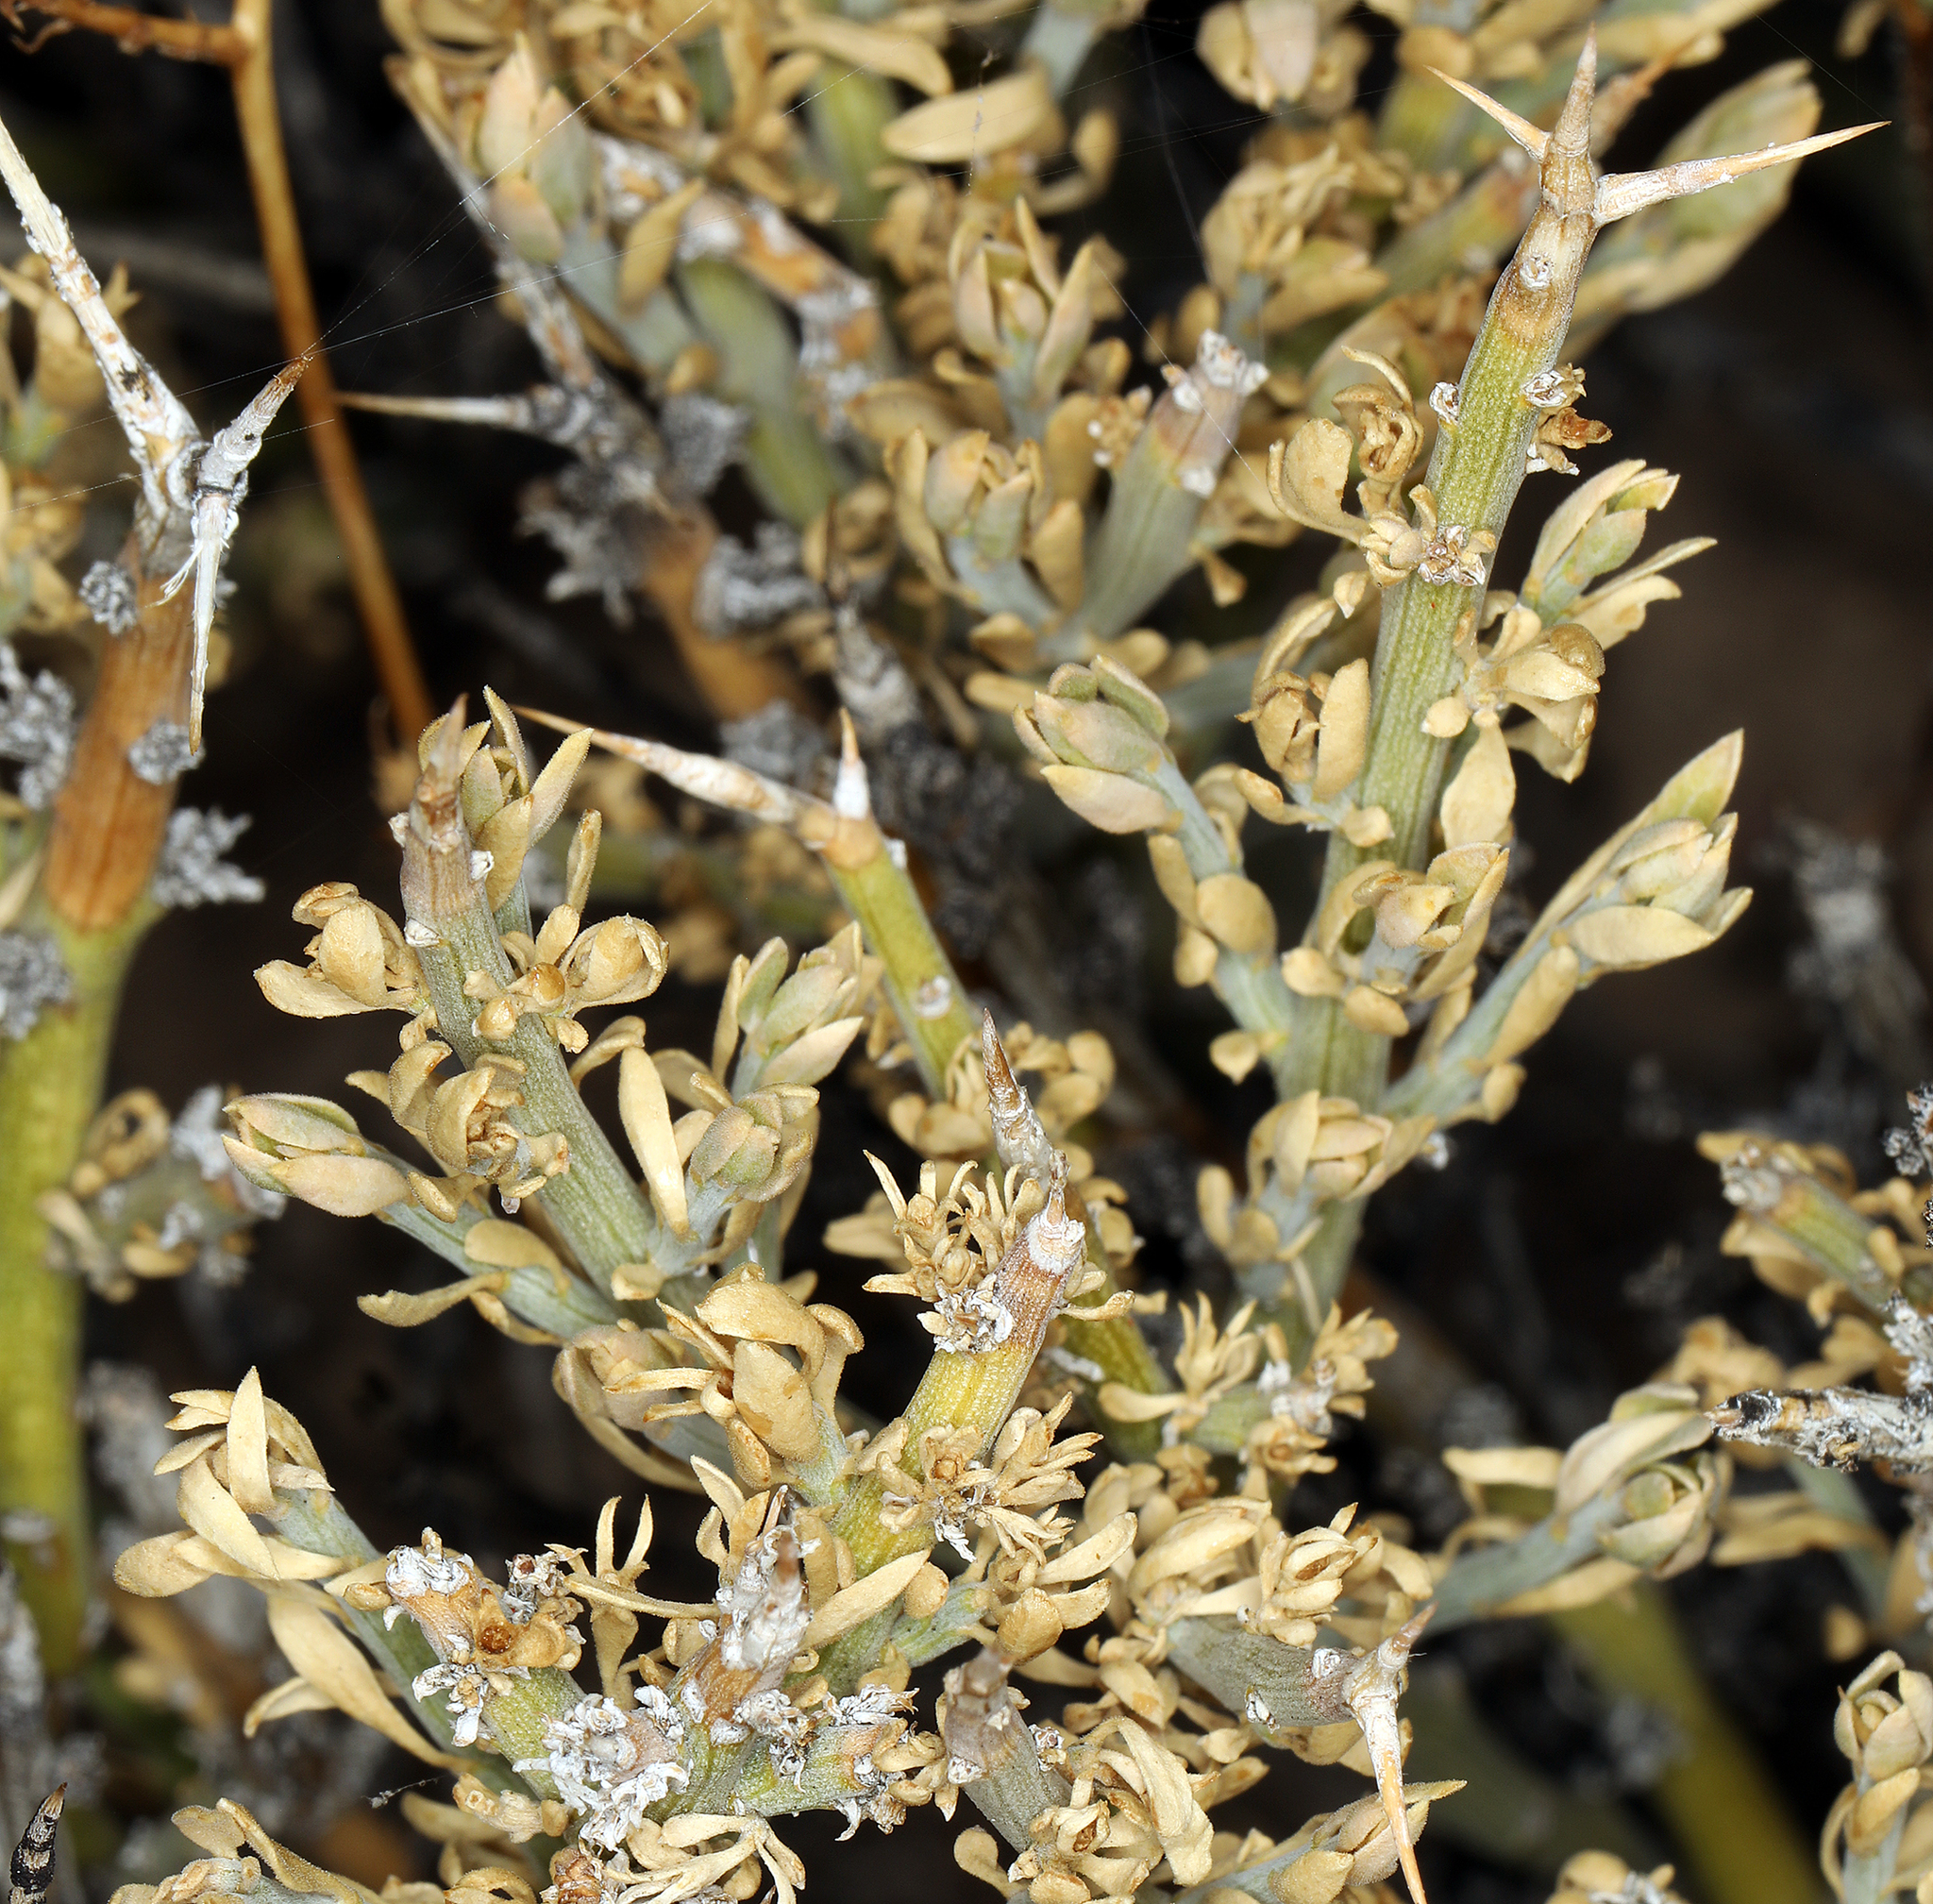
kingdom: Plantae
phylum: Tracheophyta
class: Magnoliopsida
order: Lamiales
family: Oleaceae
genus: Menodora
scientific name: Menodora spinescens
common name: Spiny menodora
